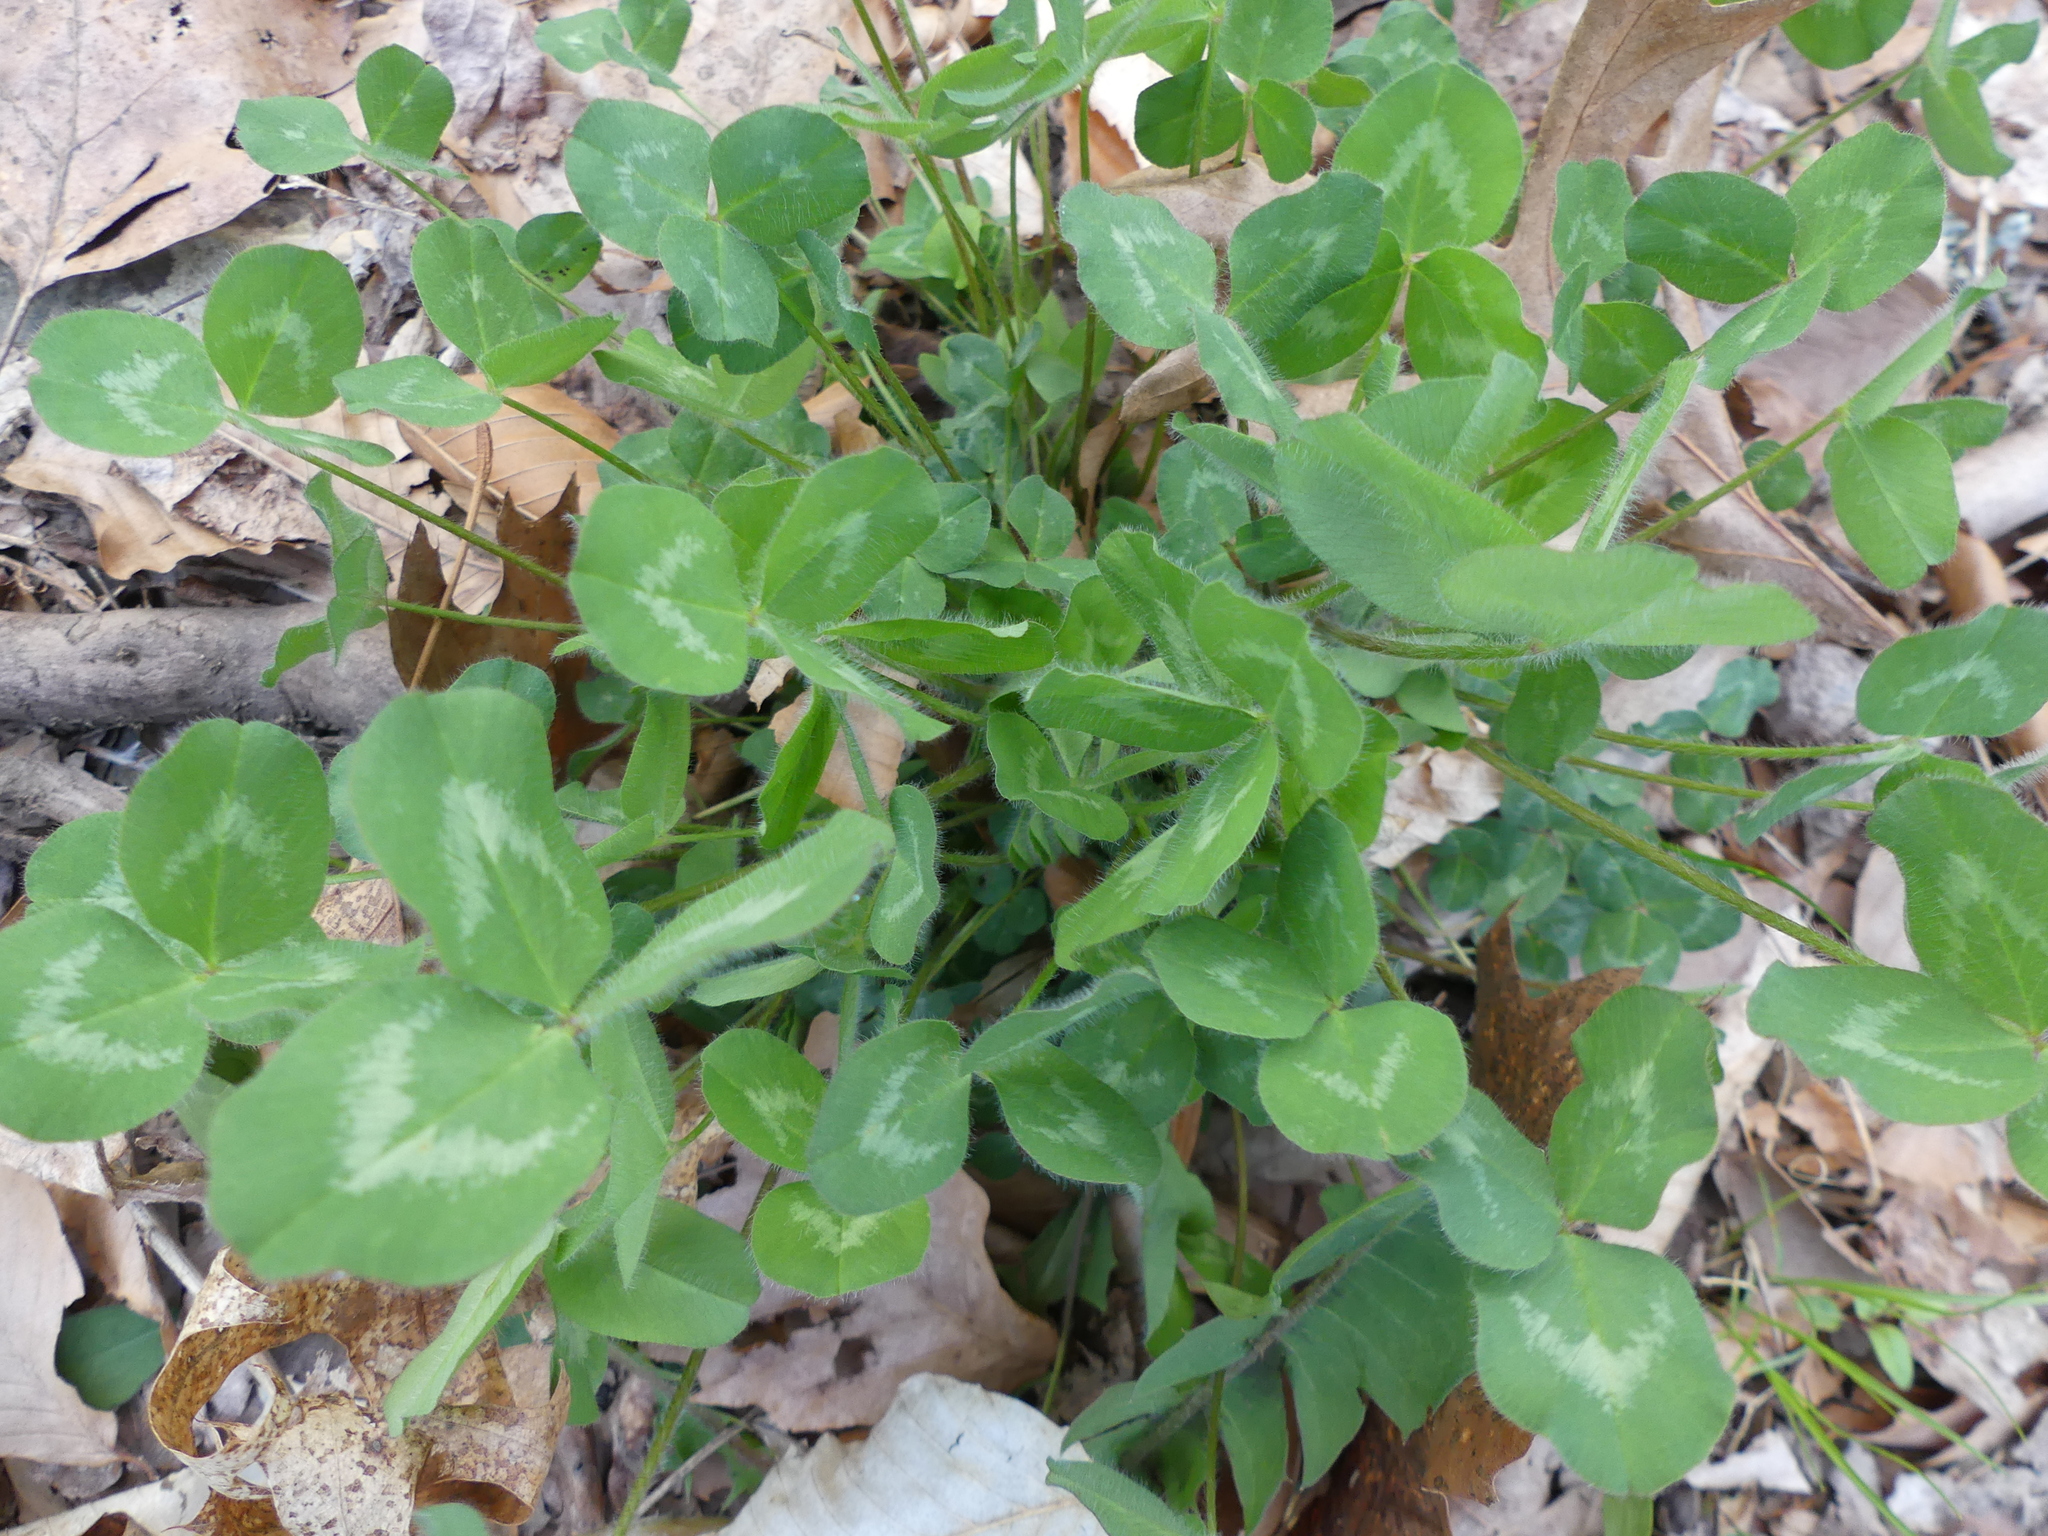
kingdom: Plantae
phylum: Tracheophyta
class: Magnoliopsida
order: Fabales
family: Fabaceae
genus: Trifolium
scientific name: Trifolium pratense
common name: Red clover
